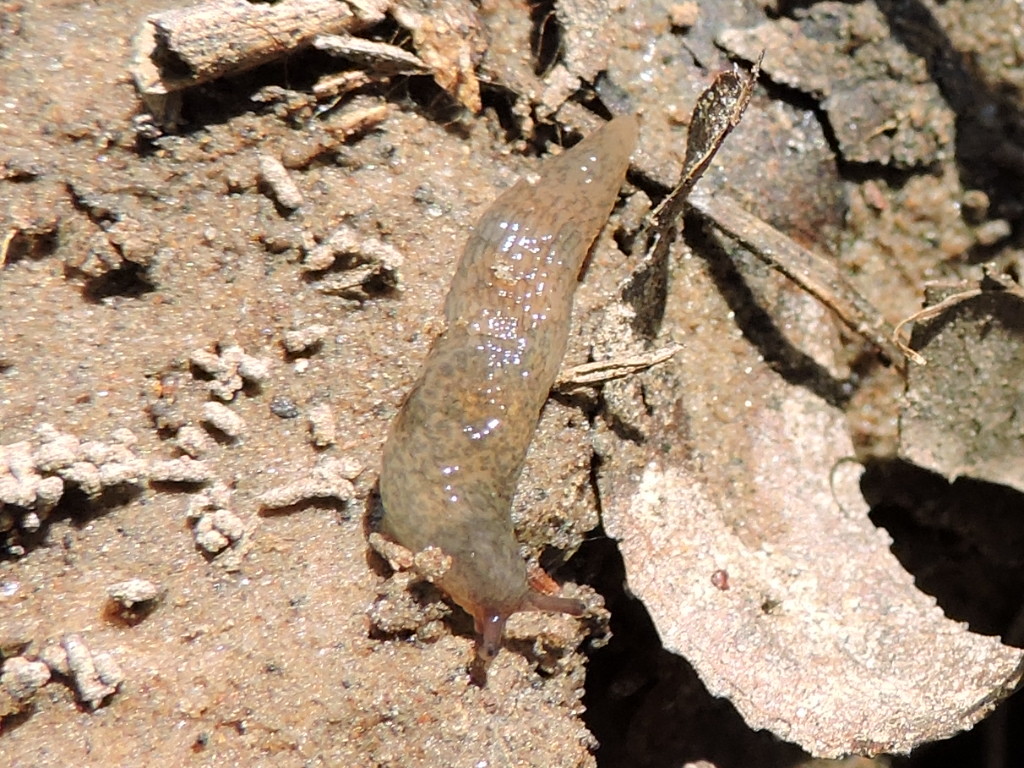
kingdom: Animalia
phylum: Mollusca
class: Gastropoda
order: Stylommatophora
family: Agriolimacidae
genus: Deroceras
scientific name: Deroceras reticulatum
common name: Gray field slug
